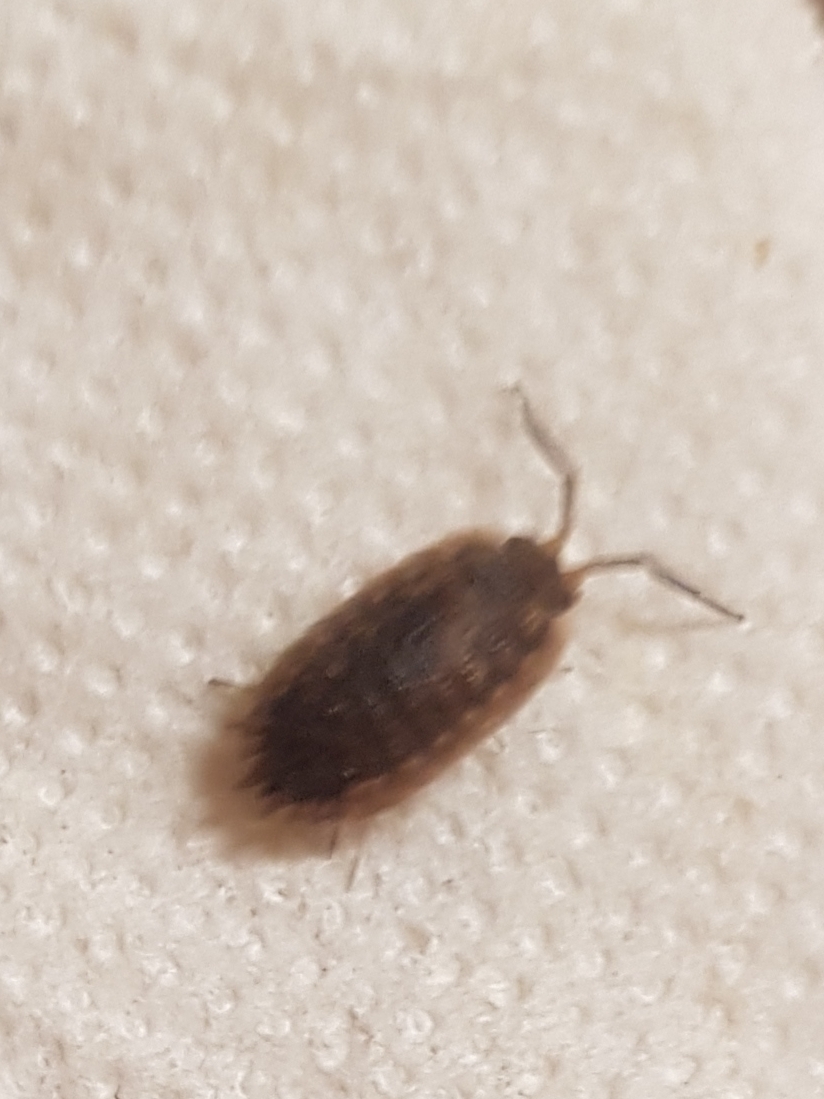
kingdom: Animalia
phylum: Arthropoda
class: Malacostraca
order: Isopoda
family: Porcellionidae
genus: Porcellio
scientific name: Porcellio scaber
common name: Common rough woodlouse
